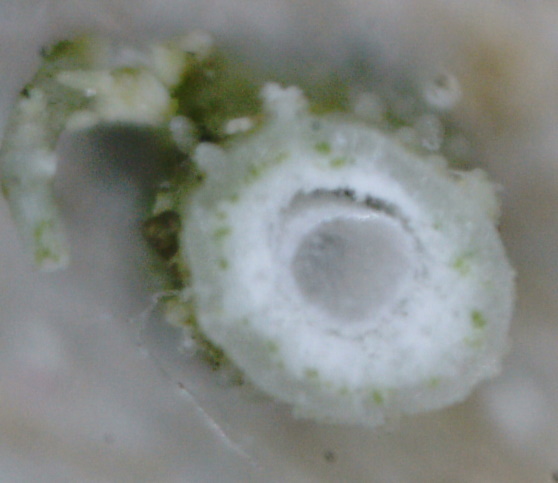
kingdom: Fungi
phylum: Ascomycota
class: Lecanoromycetes
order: Lecanorales
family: Parmeliaceae
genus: Usnea
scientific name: Usnea dasopoga
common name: Fishbone beard lichen
